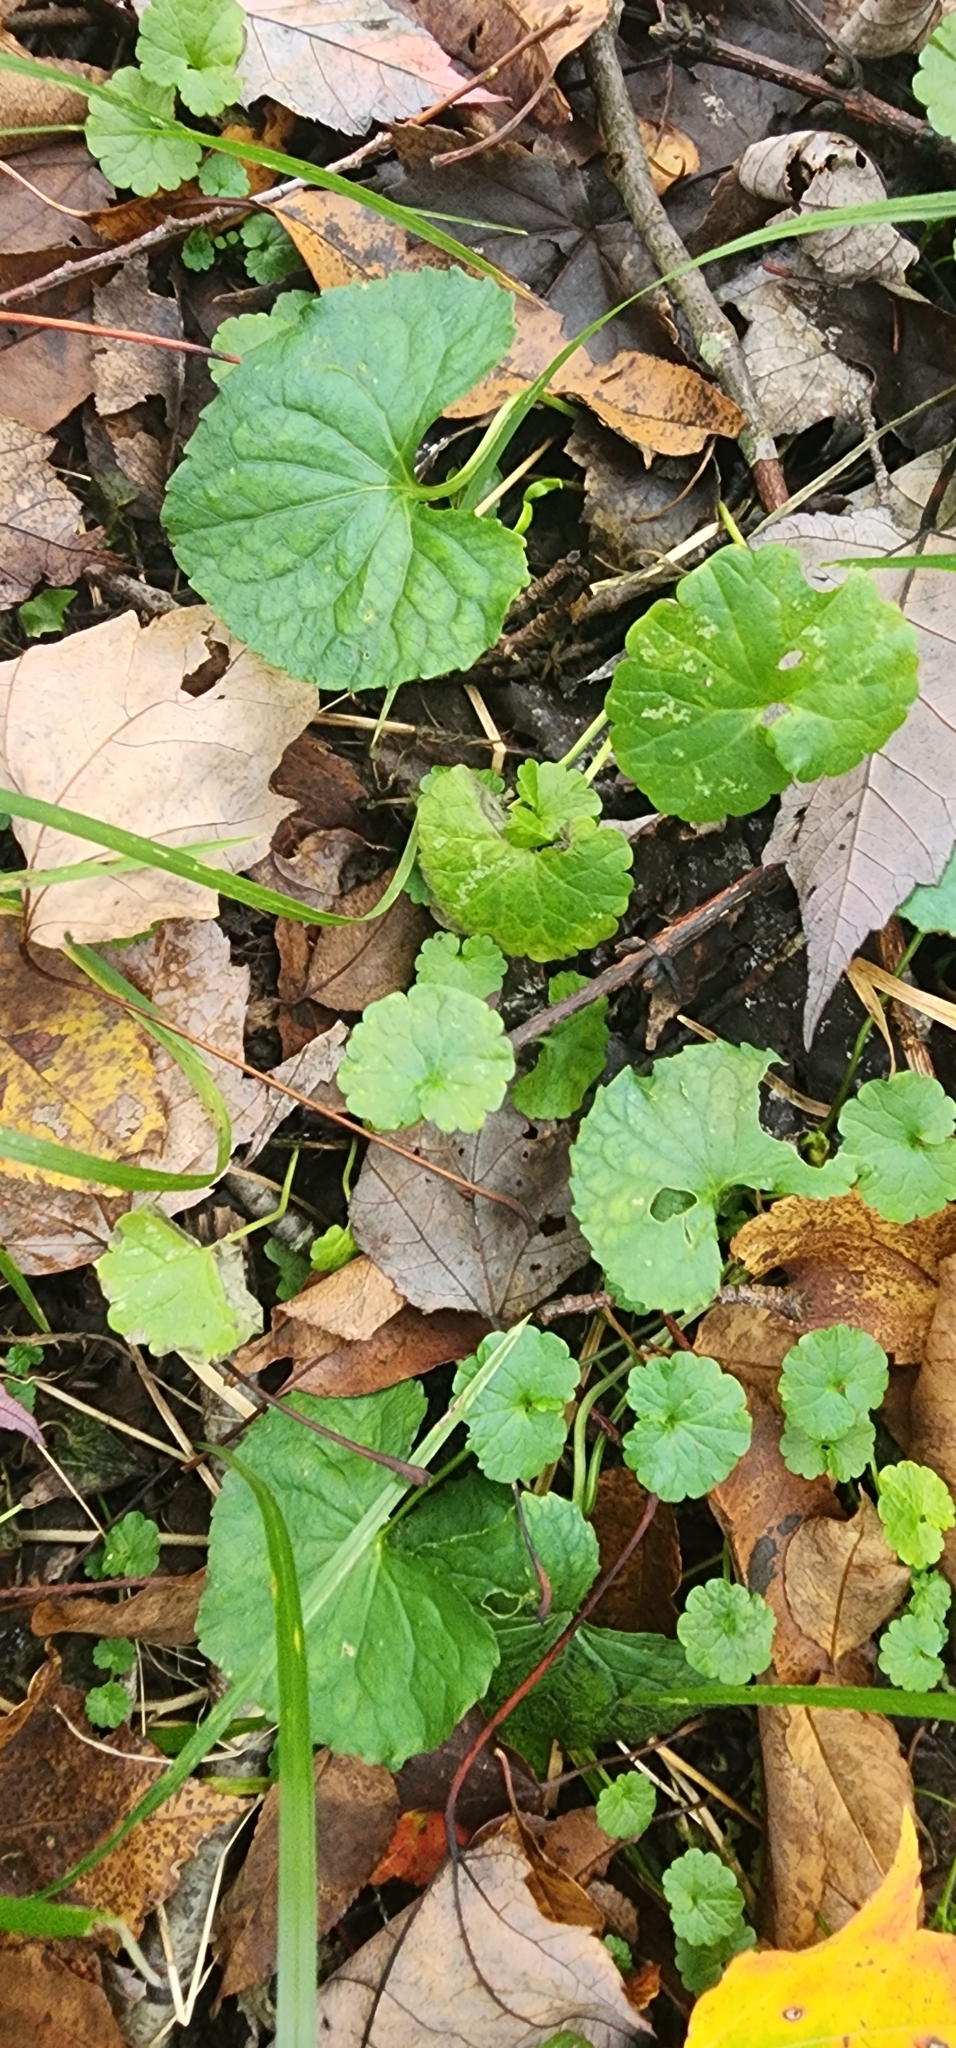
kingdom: Plantae
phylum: Tracheophyta
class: Magnoliopsida
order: Lamiales
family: Lamiaceae
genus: Glechoma
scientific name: Glechoma hederacea
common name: Ground ivy
